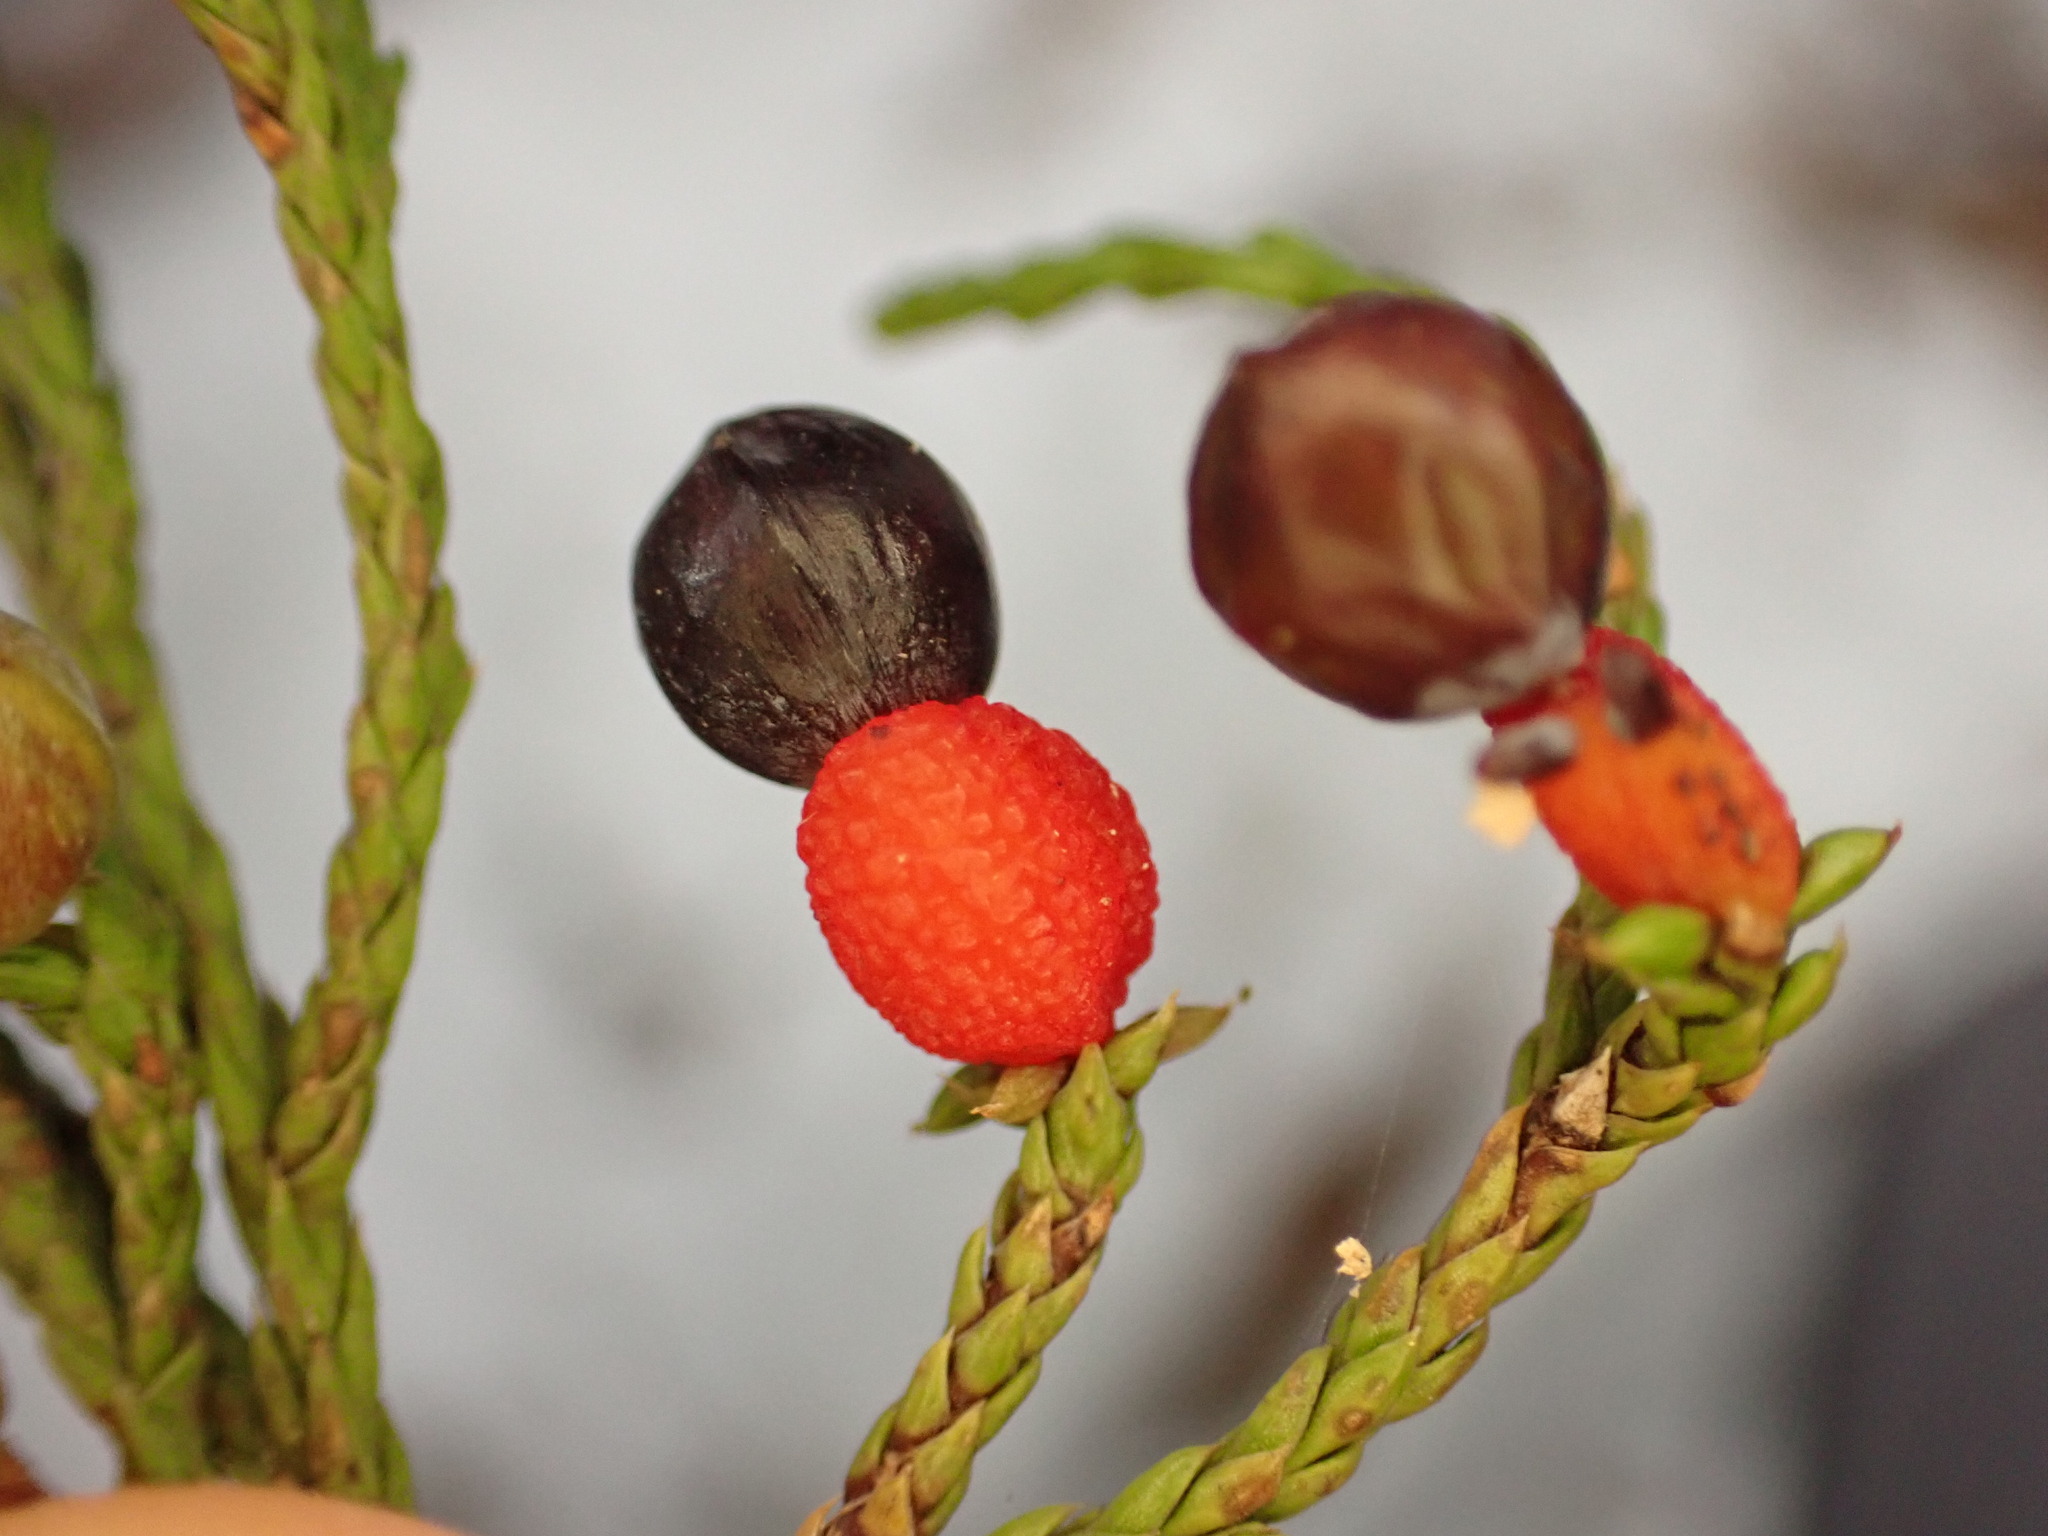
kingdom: Plantae
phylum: Tracheophyta
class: Pinopsida
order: Pinales
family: Podocarpaceae
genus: Dacrycarpus
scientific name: Dacrycarpus dacrydioides
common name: White pine
